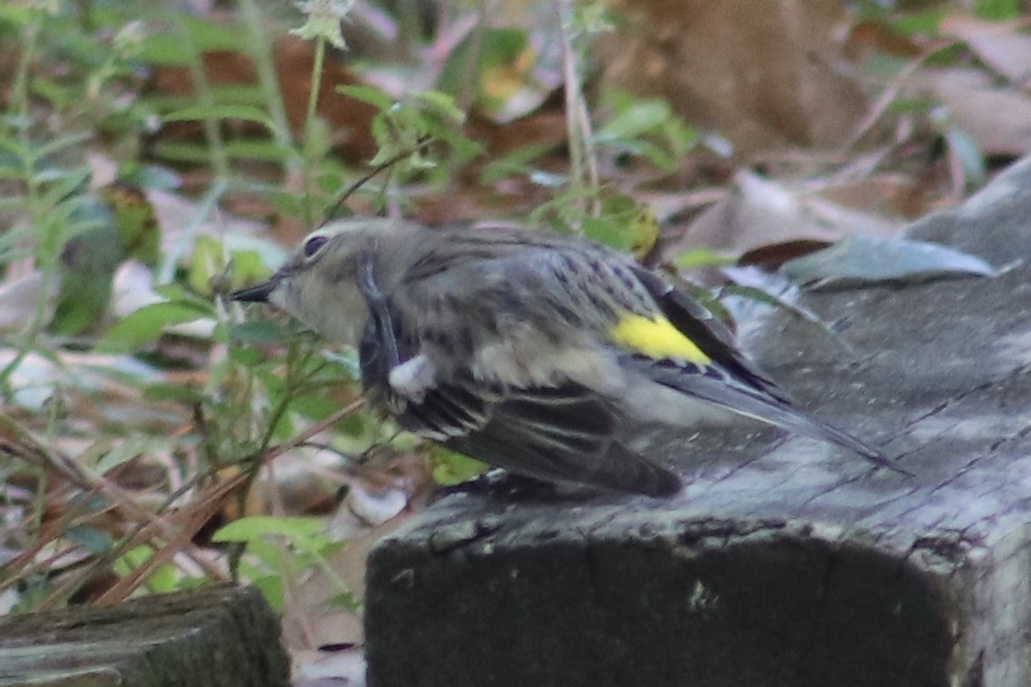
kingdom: Animalia
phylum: Chordata
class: Aves
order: Passeriformes
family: Parulidae
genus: Setophaga
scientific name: Setophaga coronata
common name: Myrtle warbler
